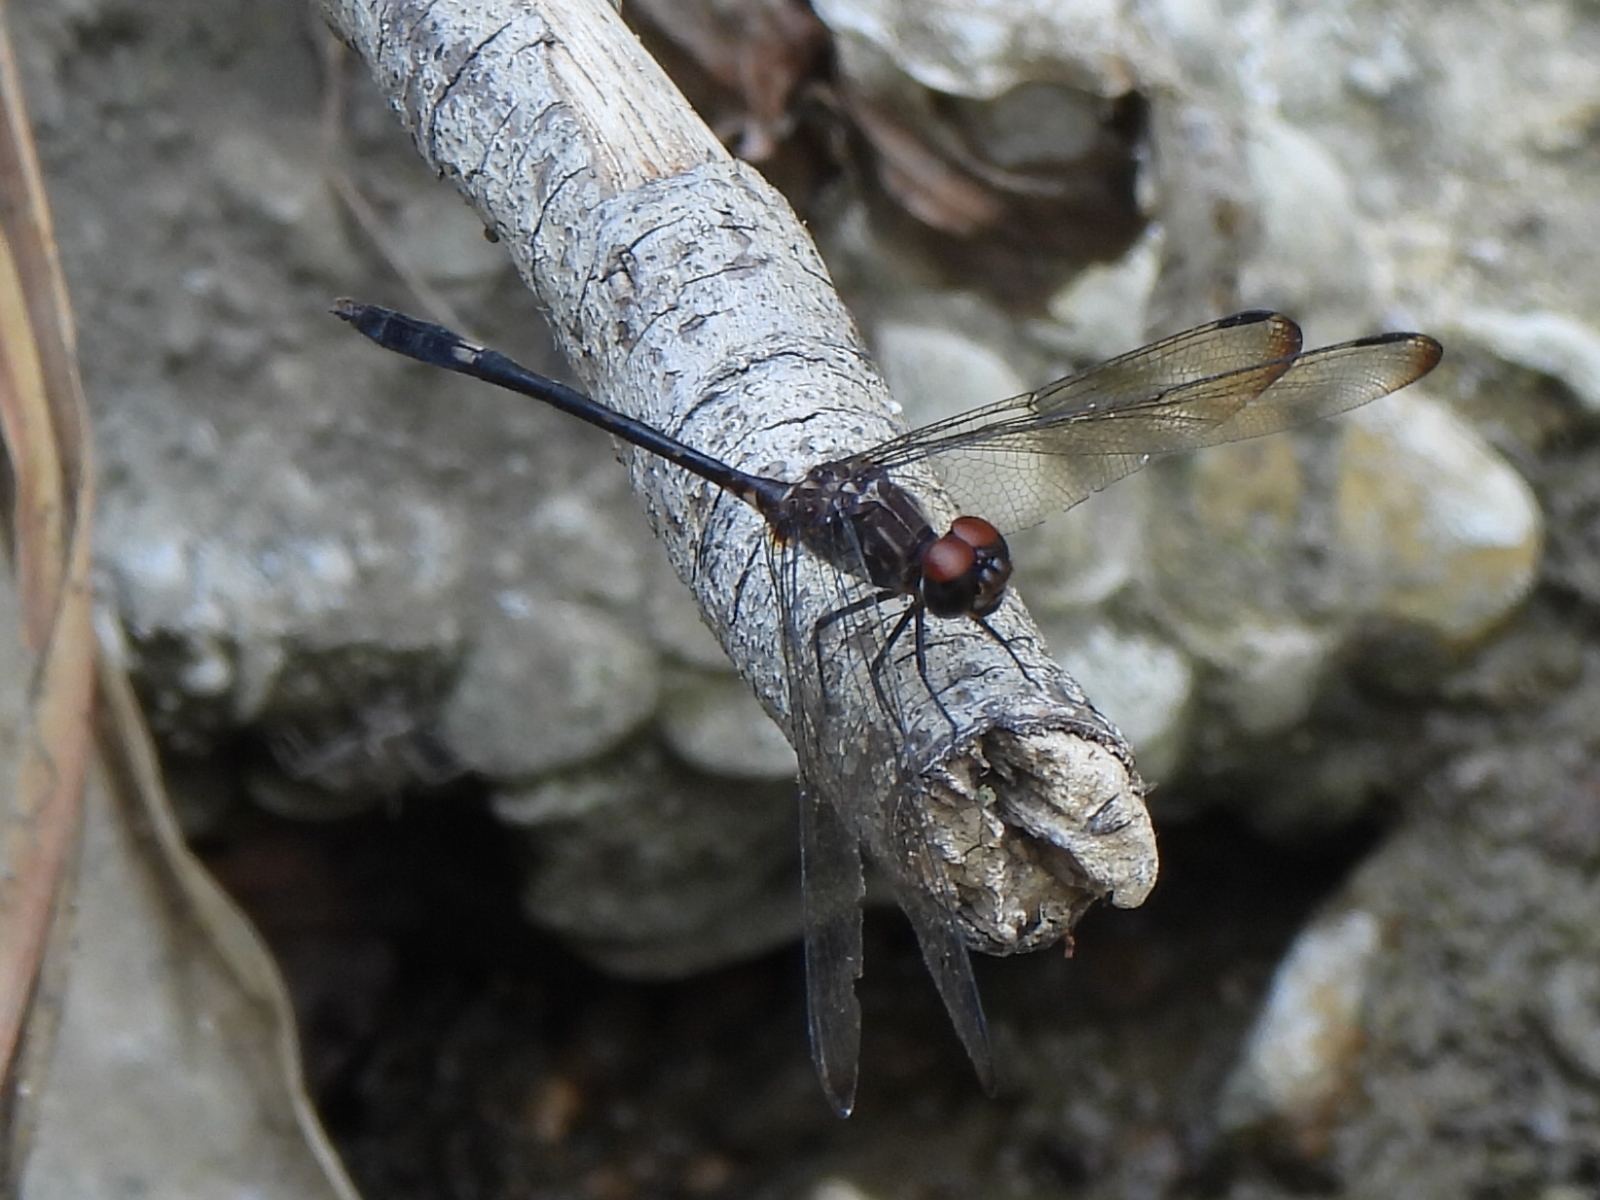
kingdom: Animalia
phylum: Arthropoda
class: Insecta
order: Odonata
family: Libellulidae
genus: Dythemis
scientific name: Dythemis velox
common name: Swift setwing
